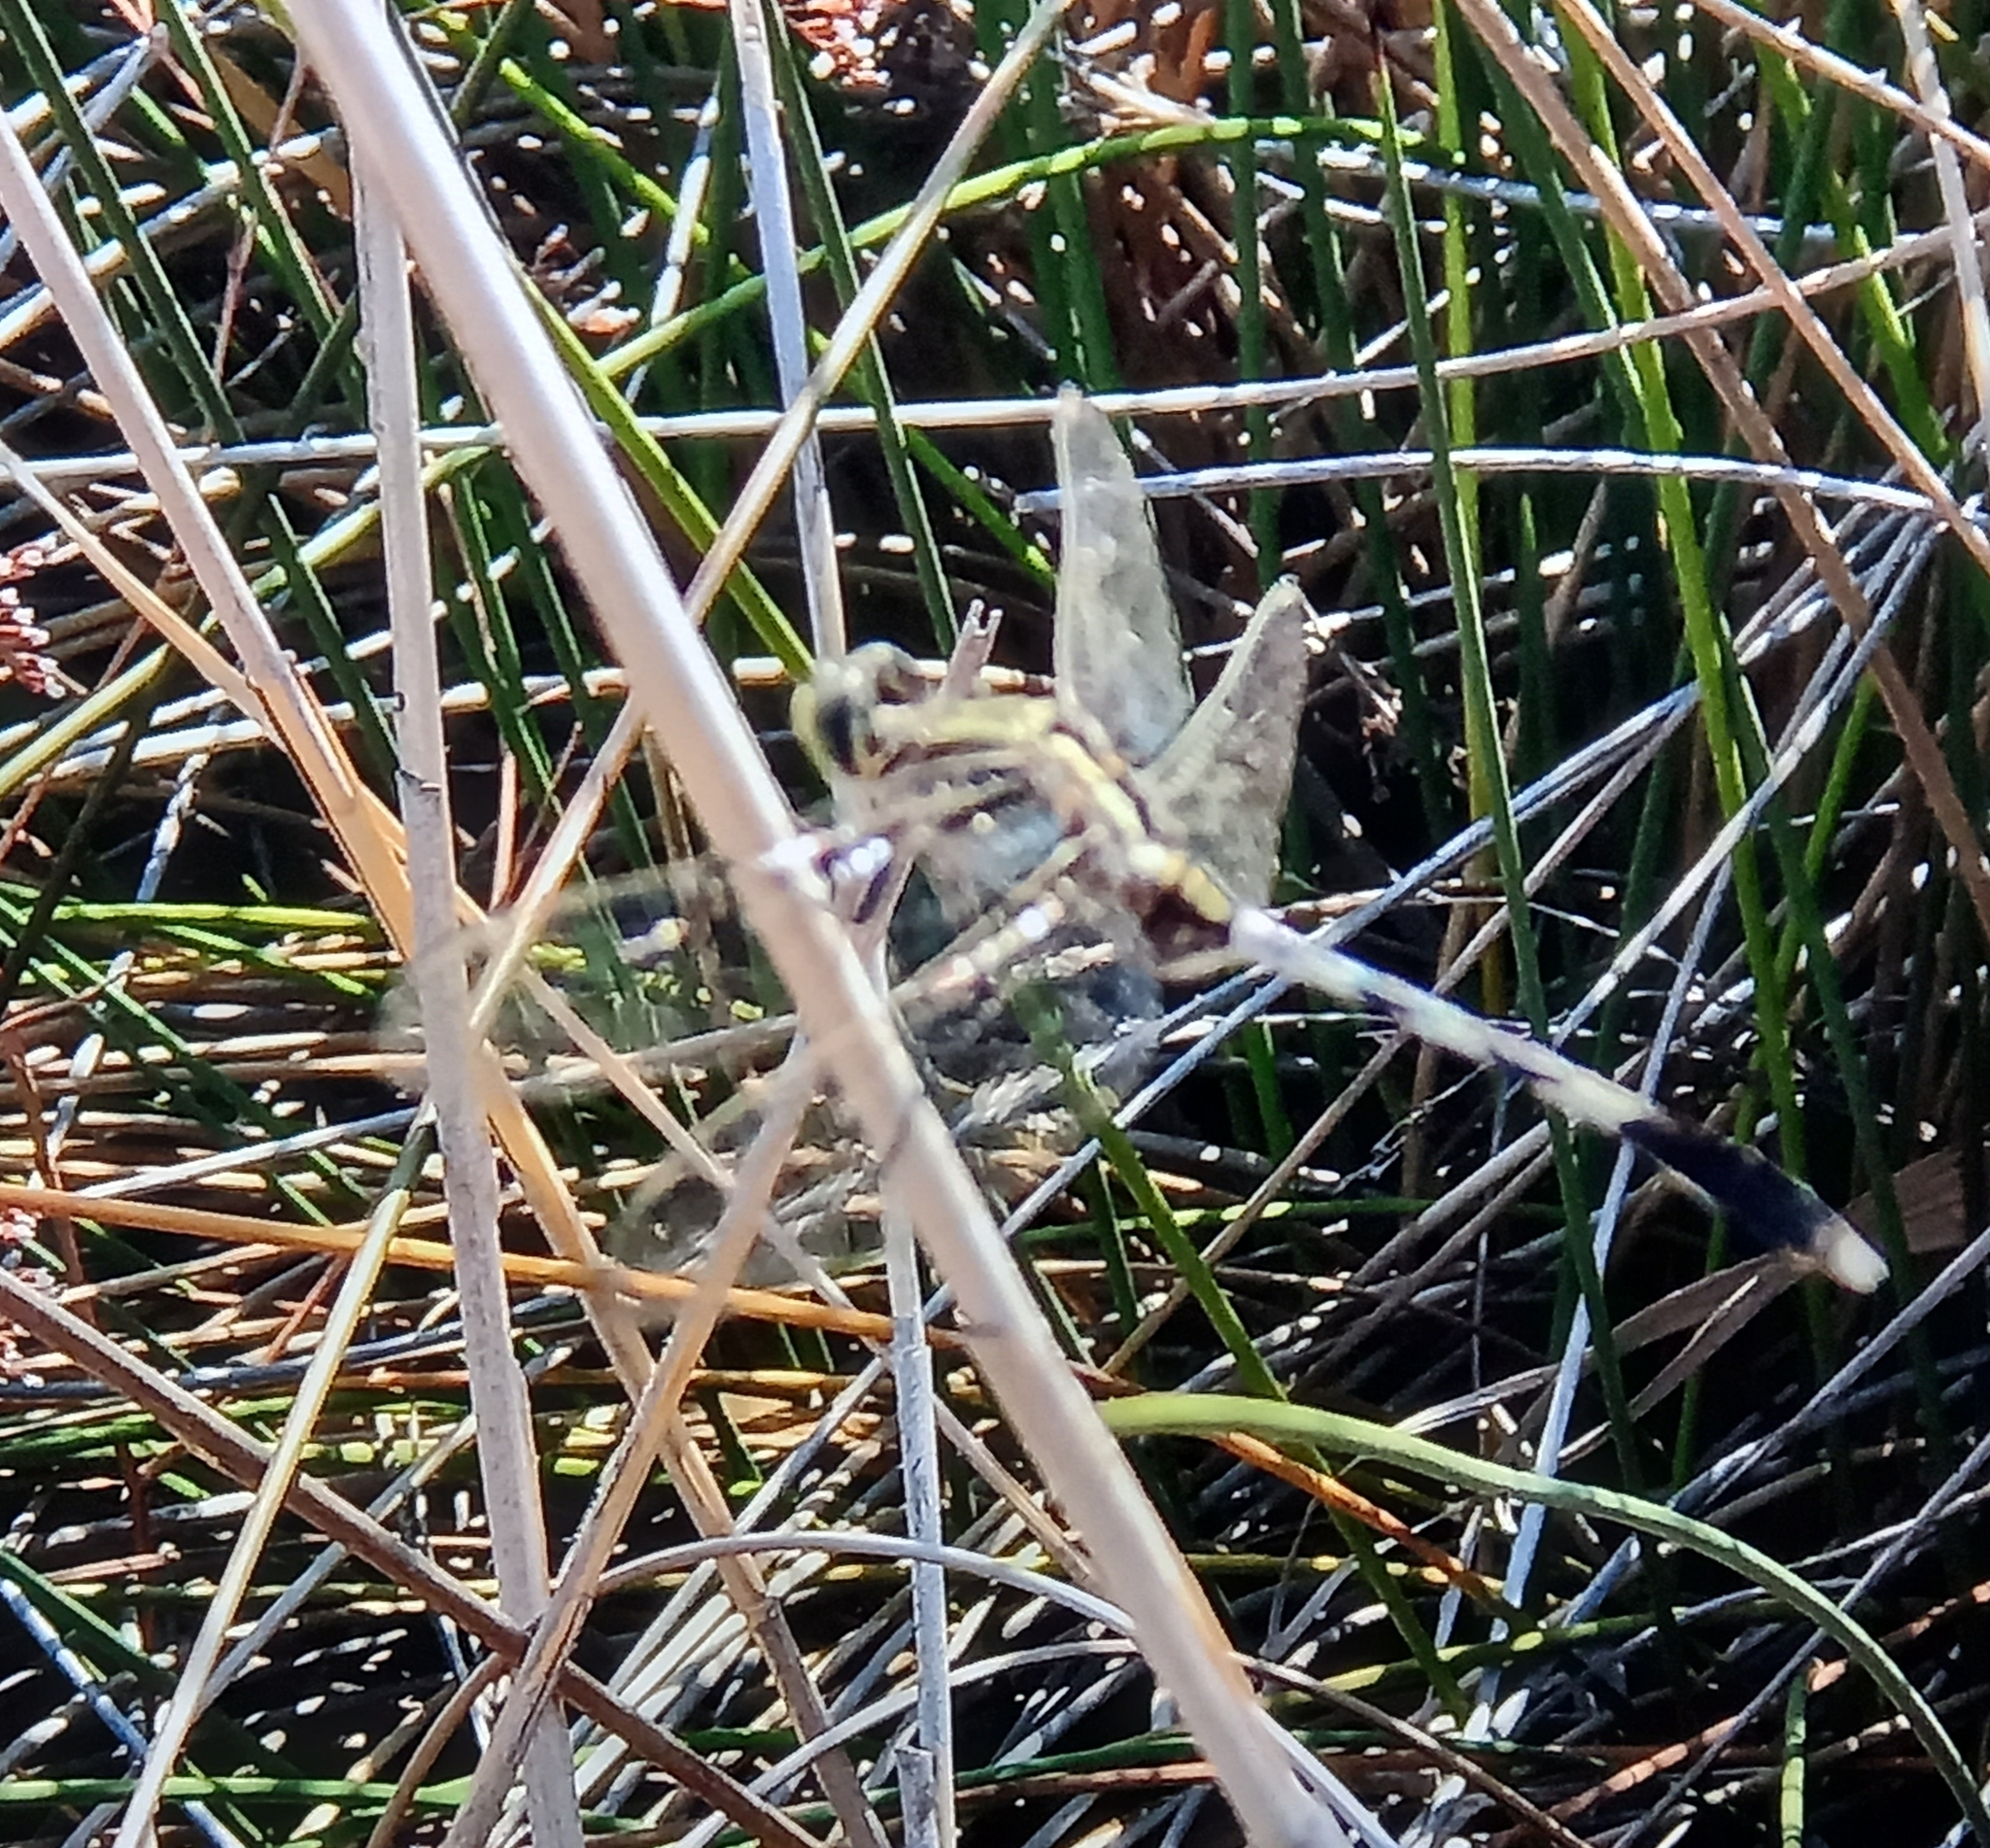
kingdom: Animalia
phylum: Arthropoda
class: Insecta
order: Odonata
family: Libellulidae
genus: Orthetrum
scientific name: Orthetrum sabina
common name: Slender skimmer
